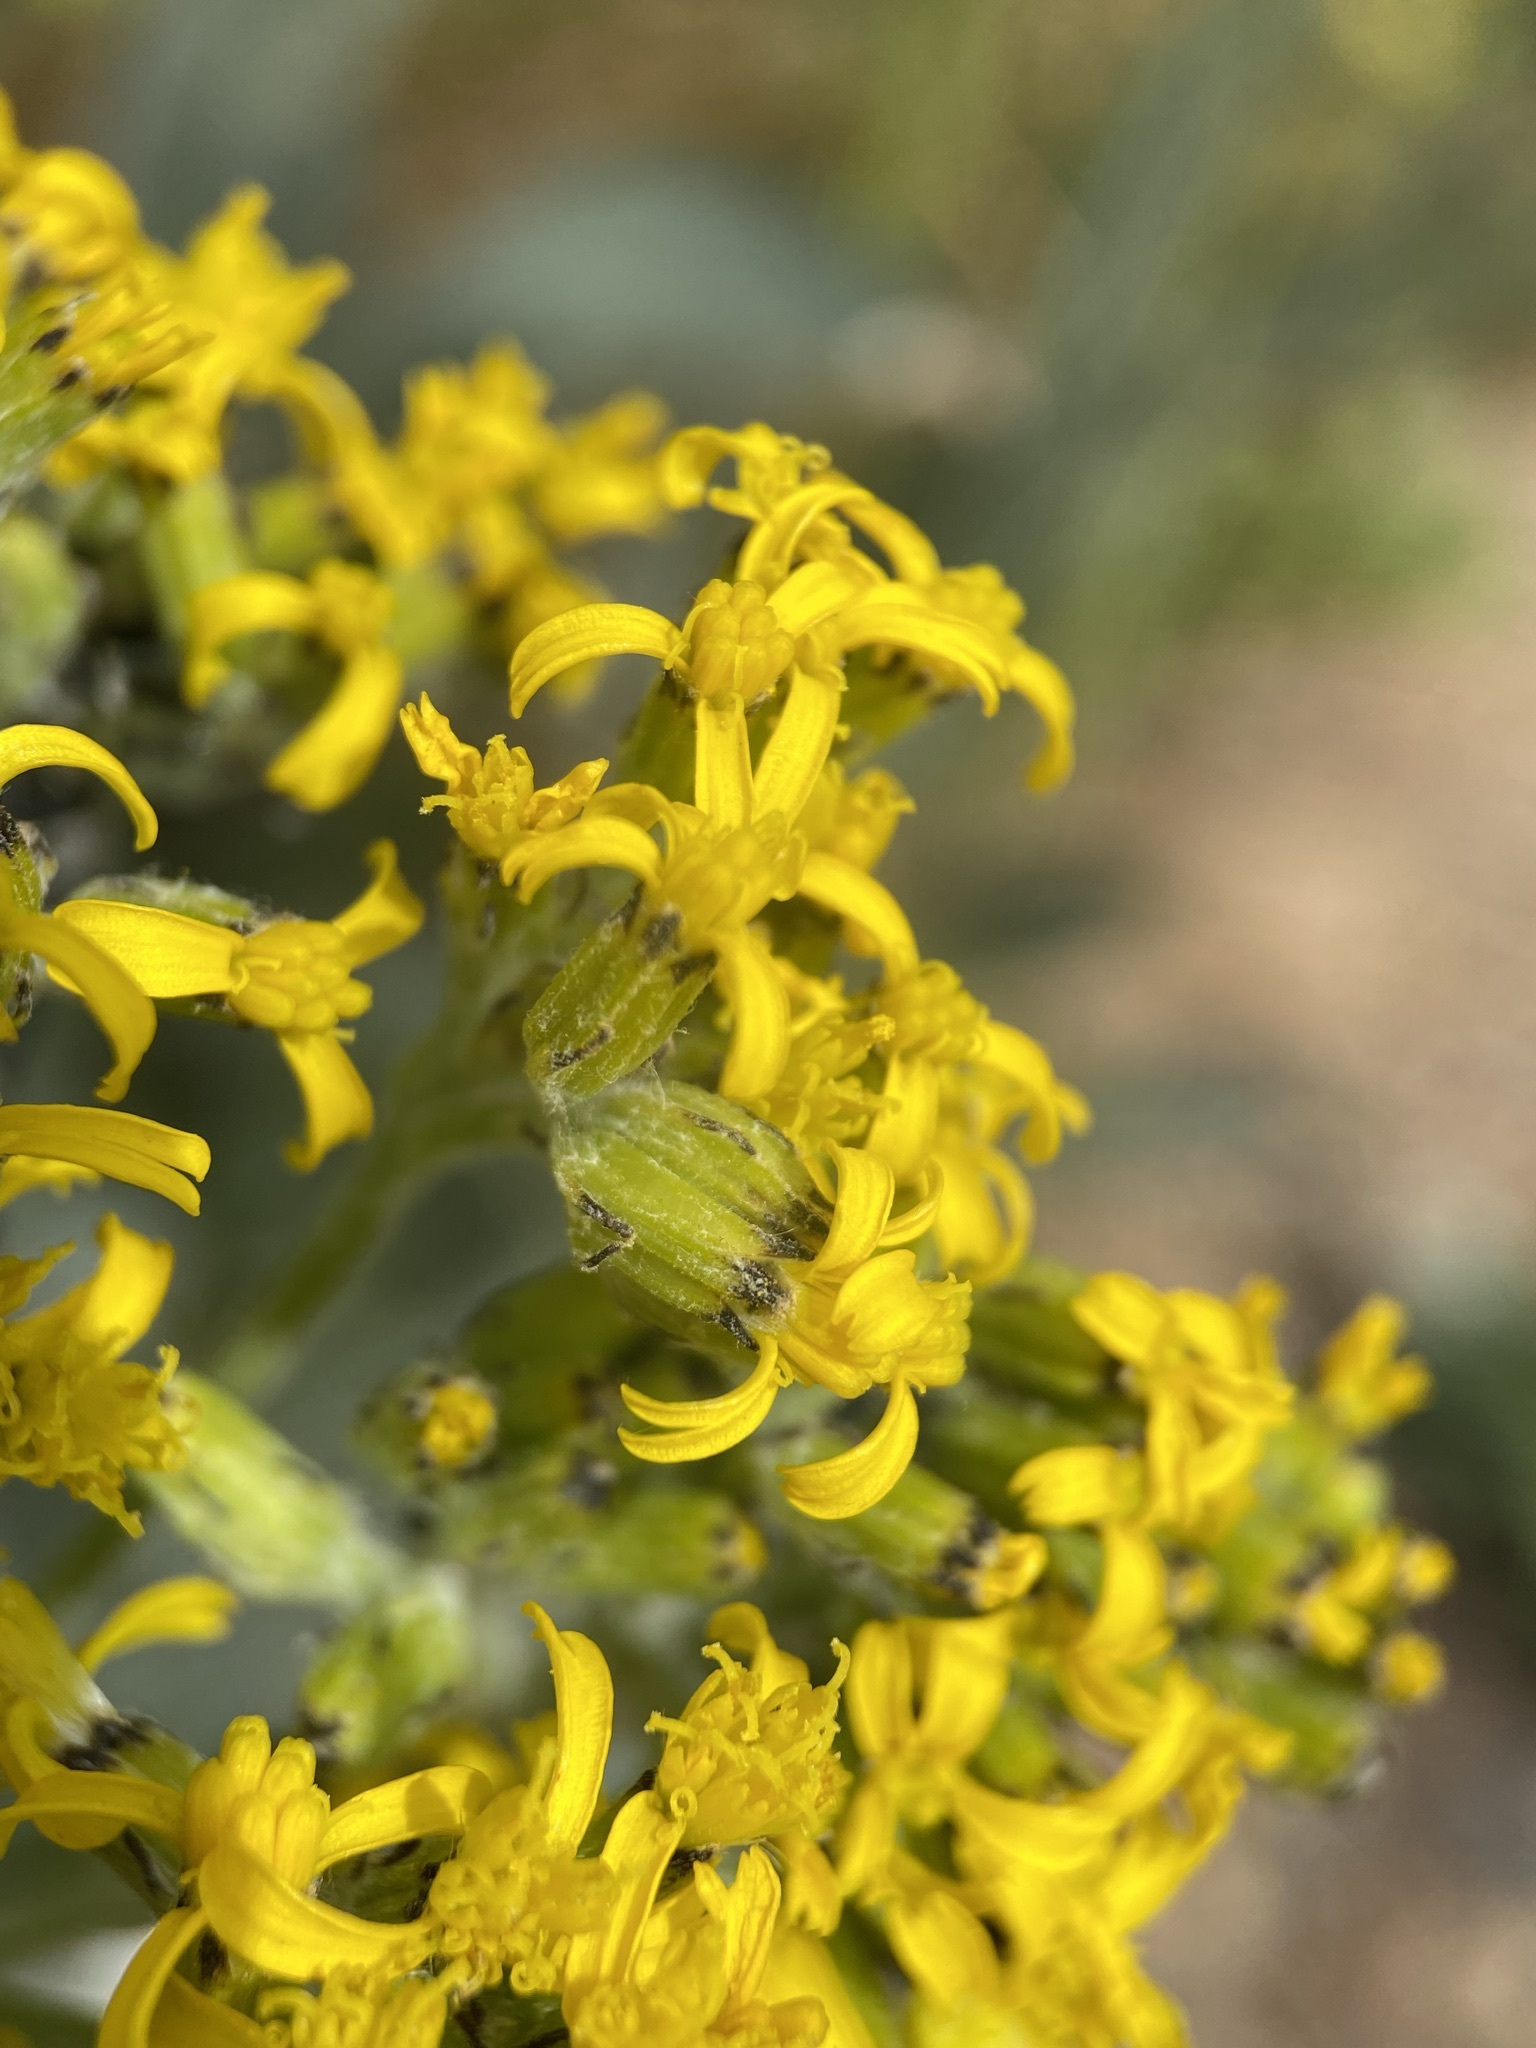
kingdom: Plantae
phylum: Tracheophyta
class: Magnoliopsida
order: Asterales
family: Asteraceae
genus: Senecio
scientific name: Senecio atratus
